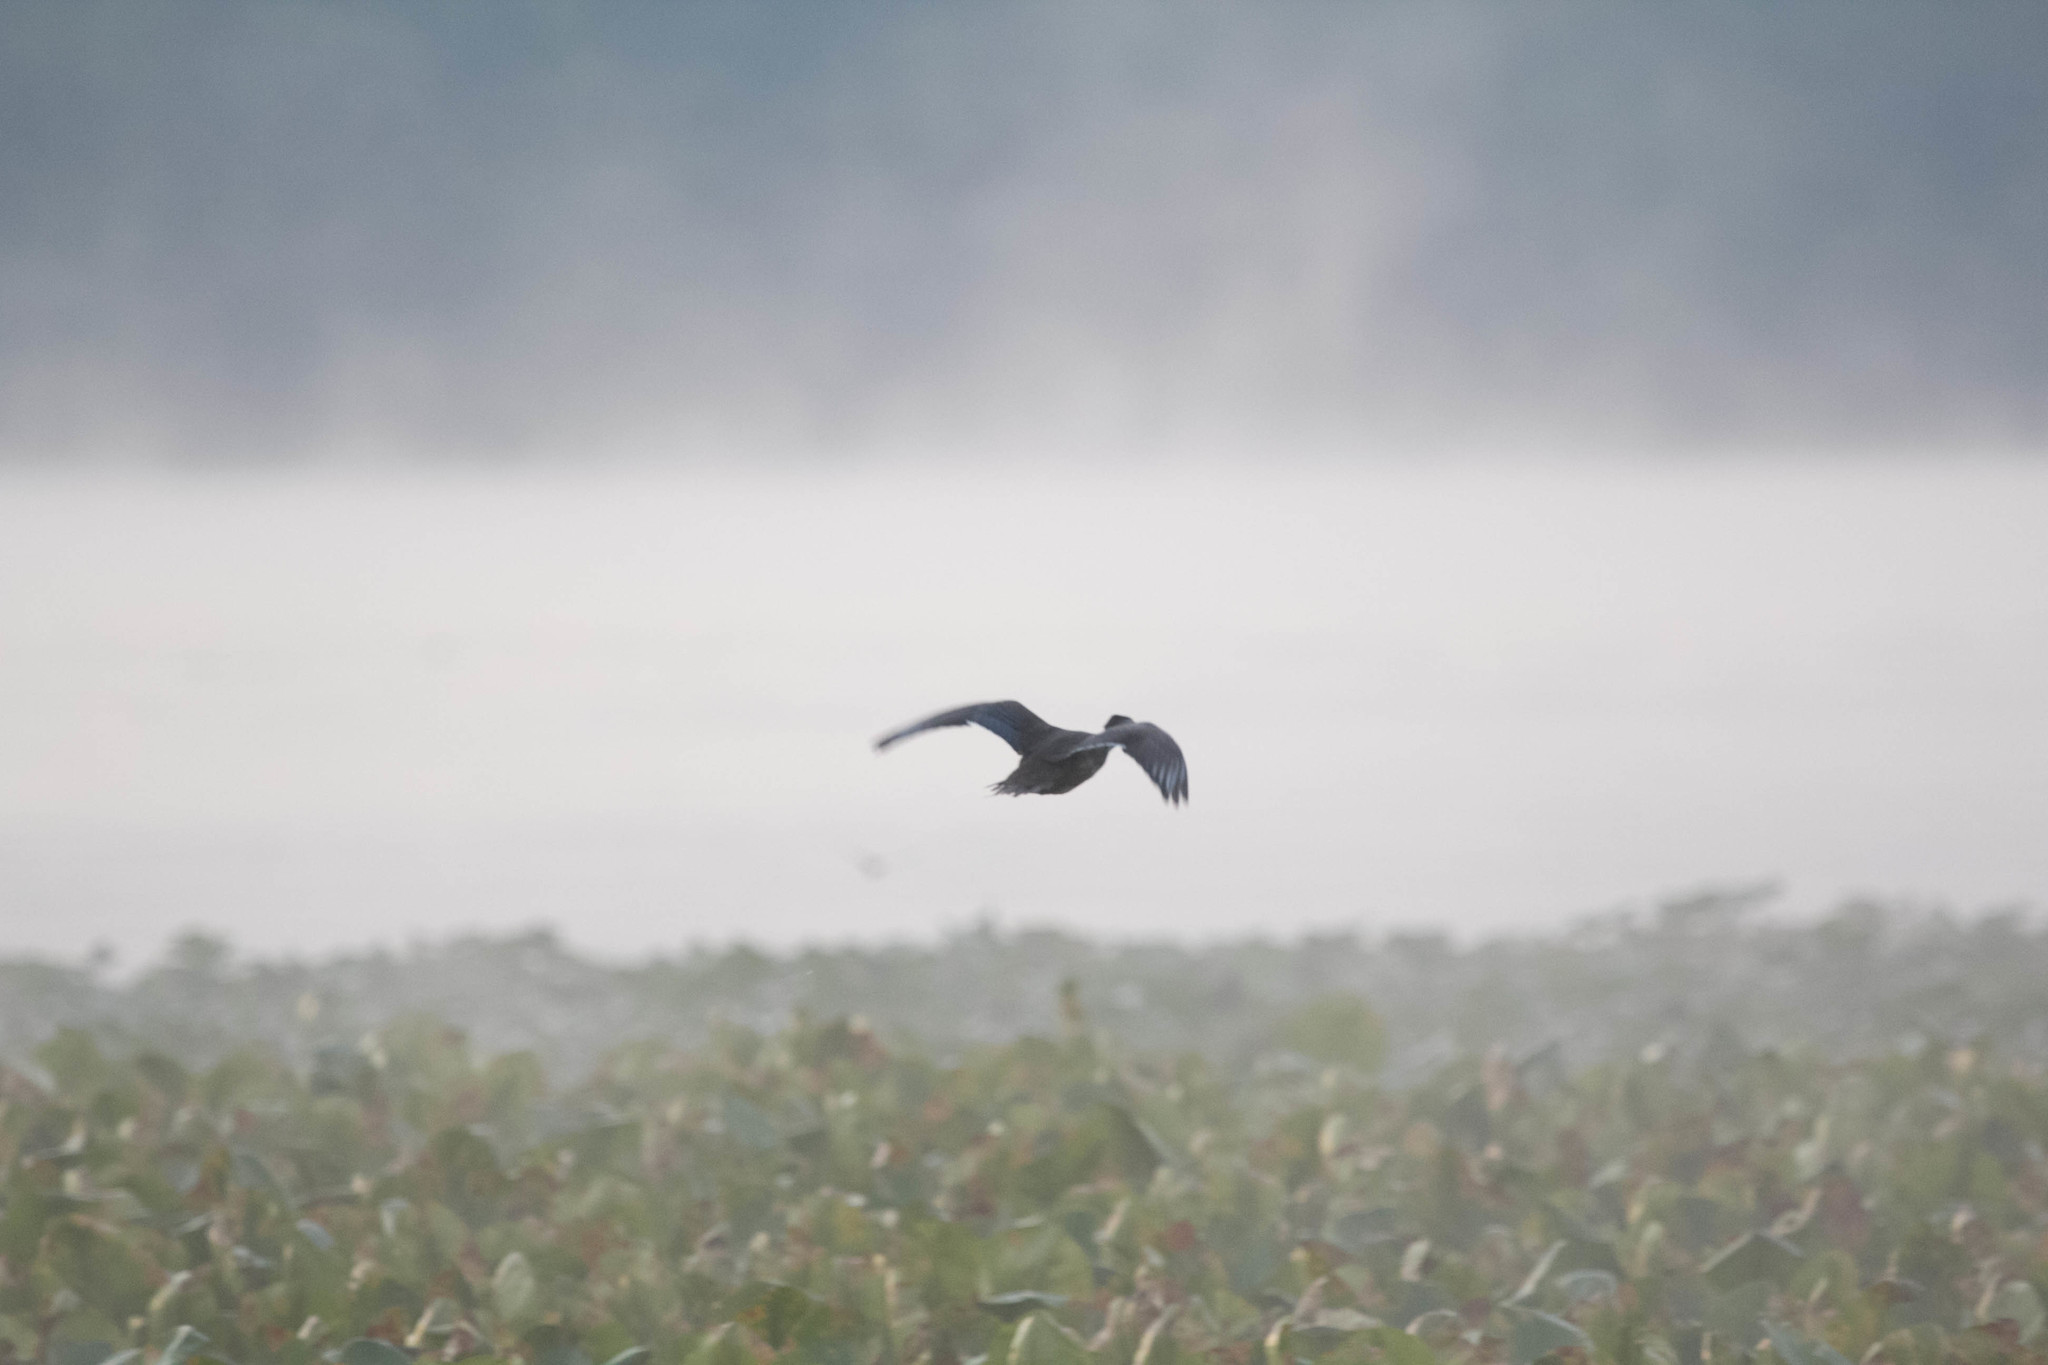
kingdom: Animalia
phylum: Chordata
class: Aves
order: Anseriformes
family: Anatidae
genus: Aix
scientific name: Aix sponsa
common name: Wood duck
